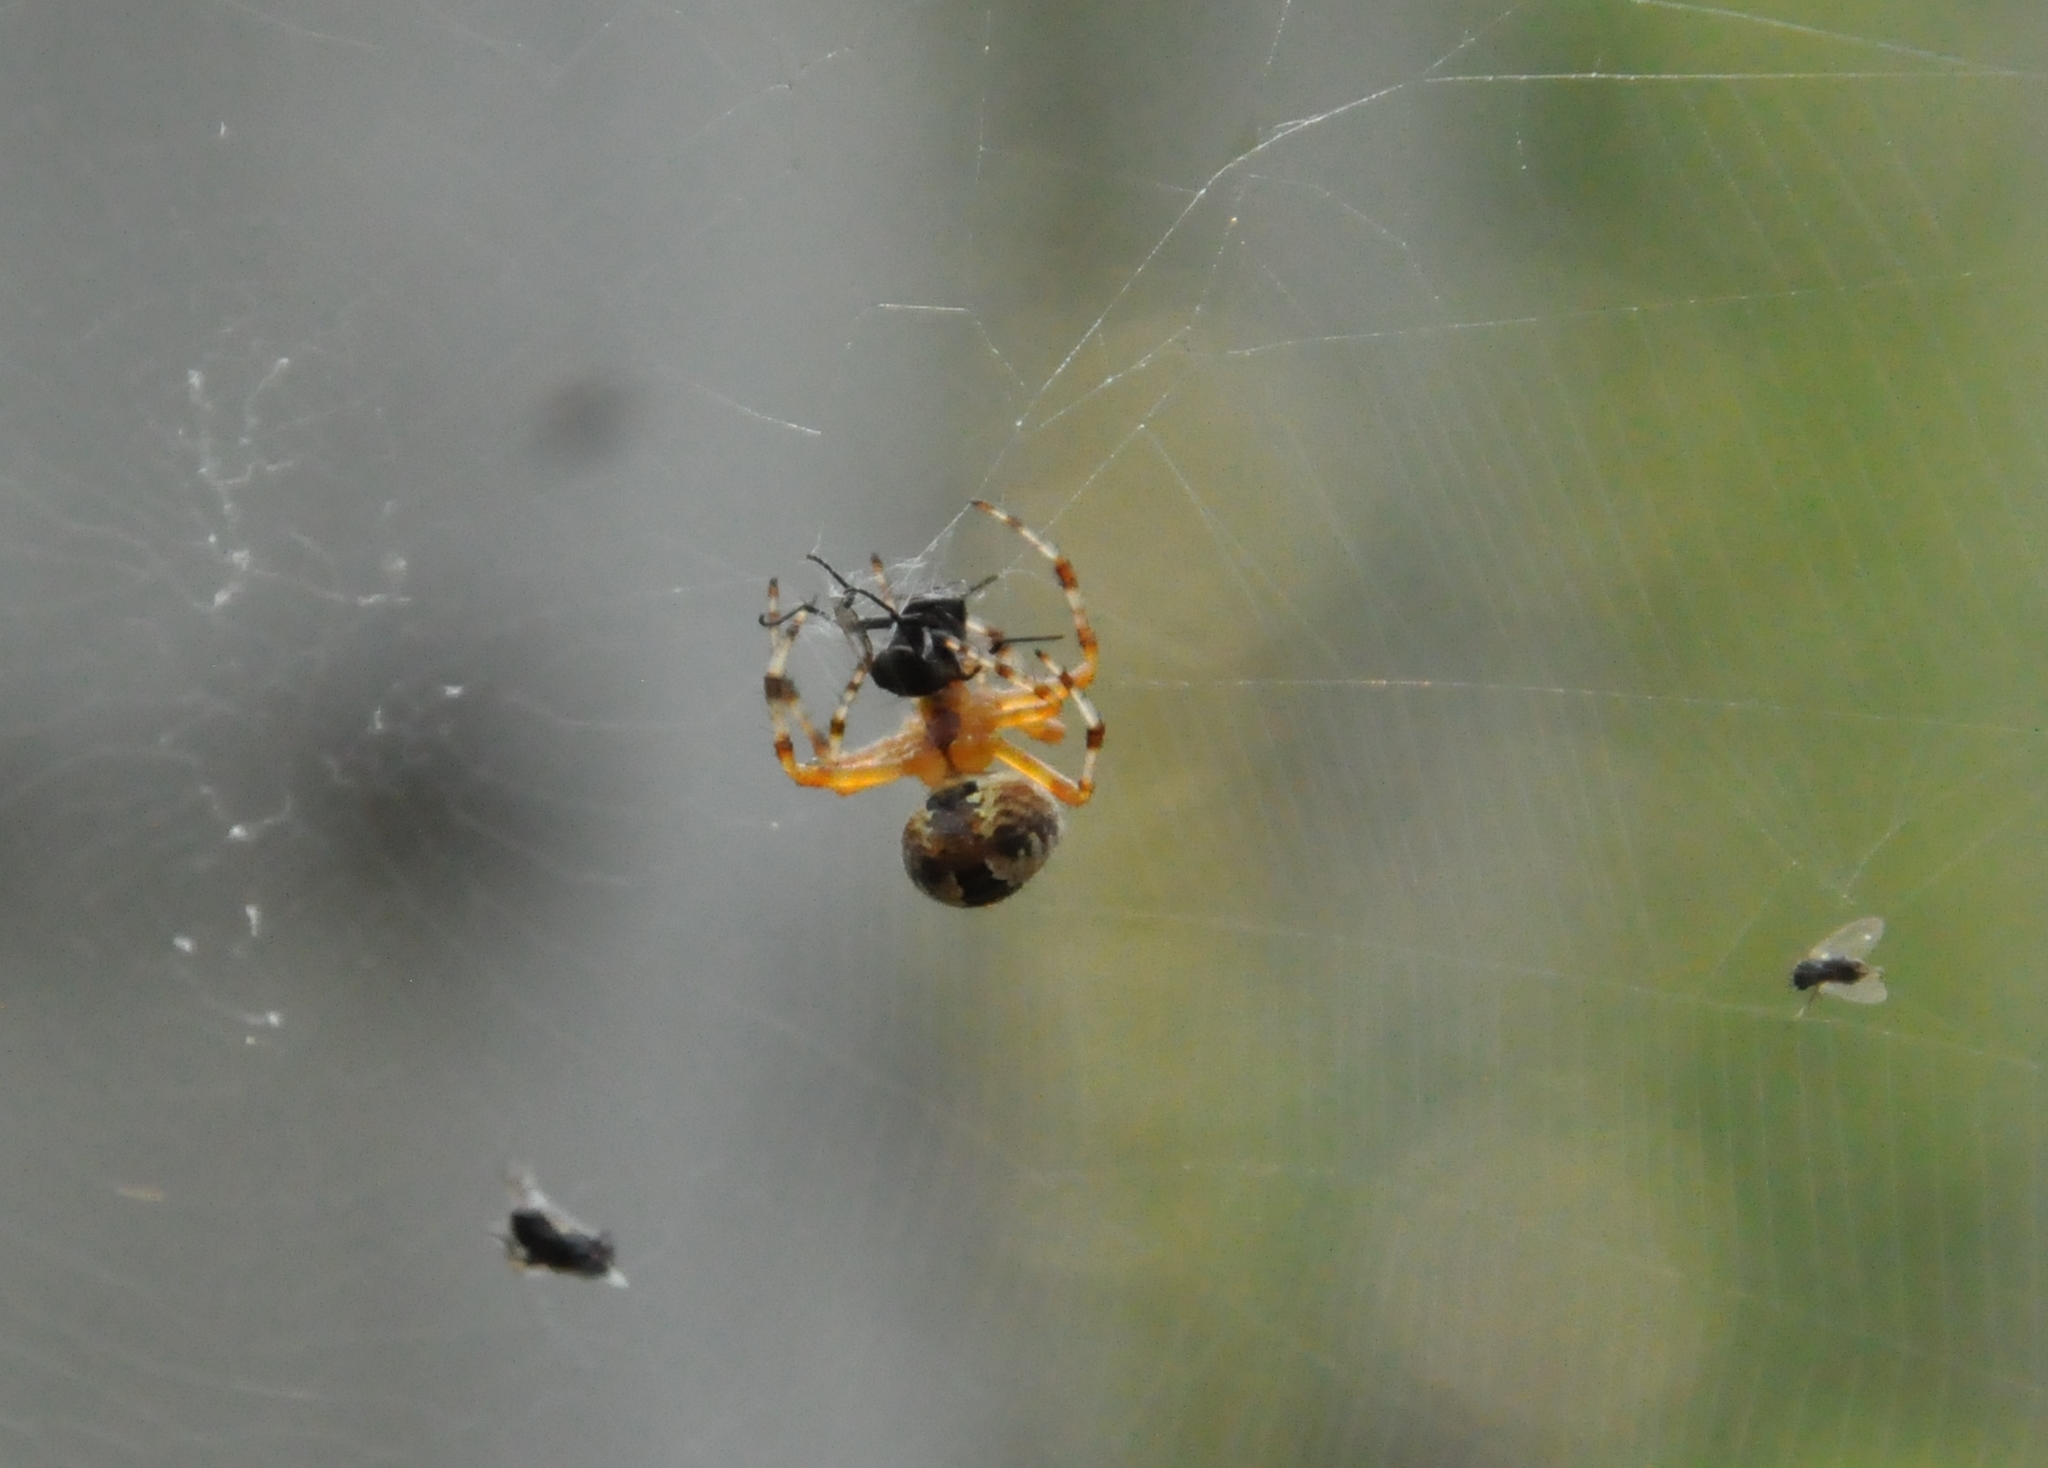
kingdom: Animalia
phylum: Arthropoda
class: Arachnida
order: Araneae
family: Araneidae
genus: Araneus
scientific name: Araneus diadematus
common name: Cross orbweaver
